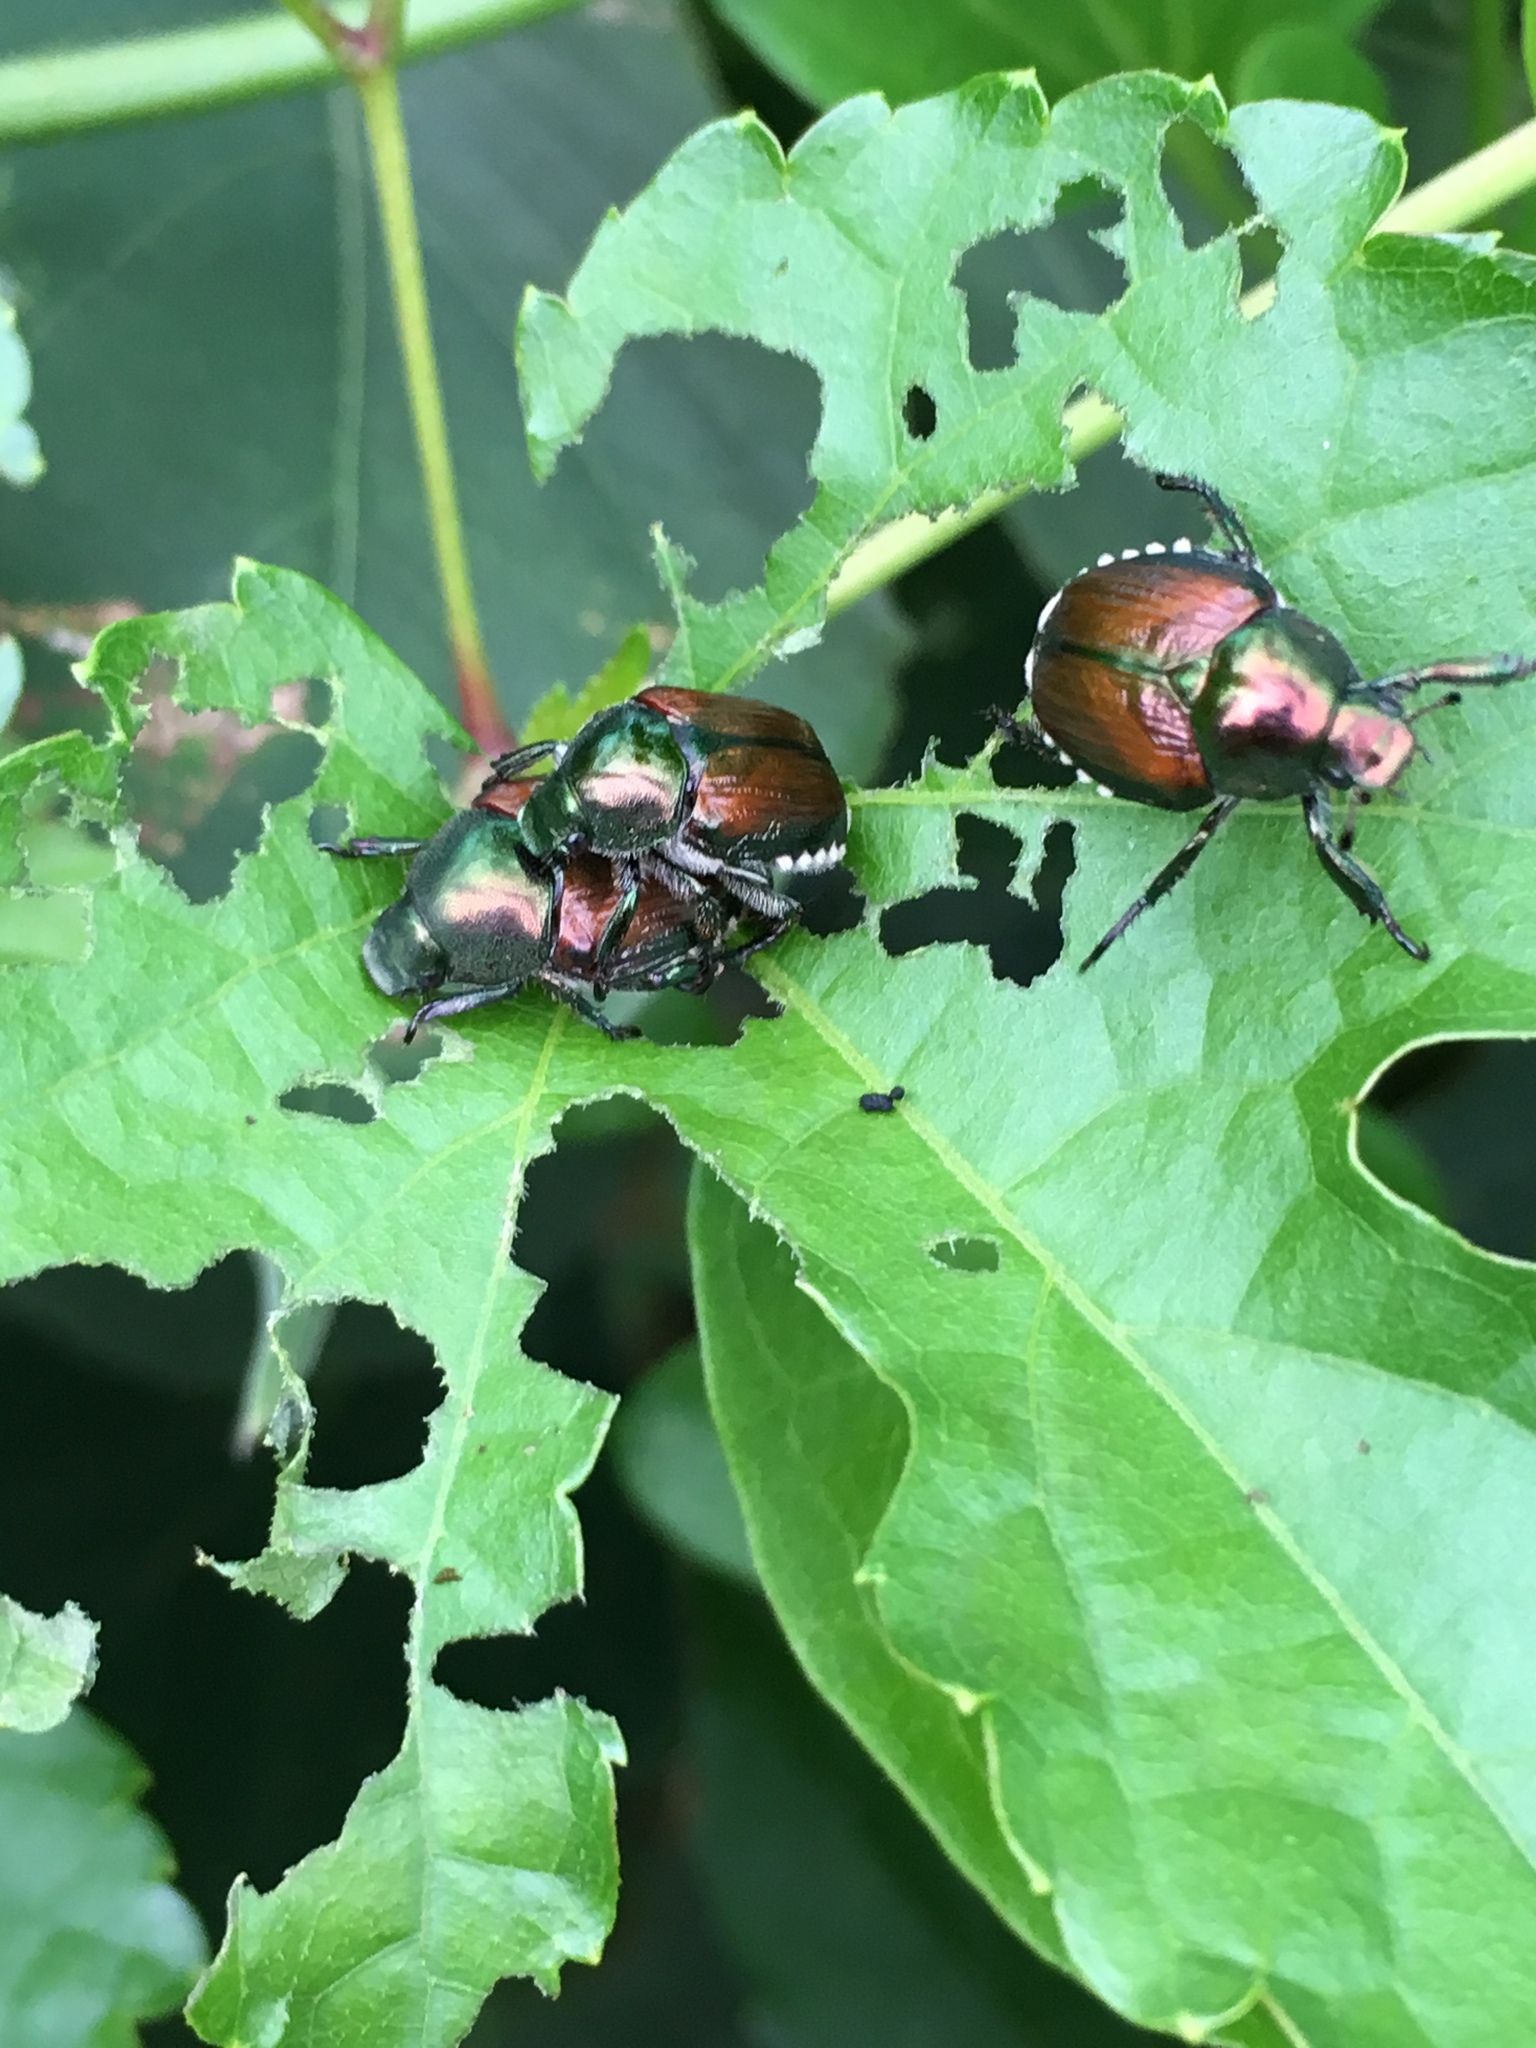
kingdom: Animalia
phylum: Arthropoda
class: Insecta
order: Coleoptera
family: Scarabaeidae
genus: Popillia
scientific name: Popillia japonica
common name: Japanese beetle
